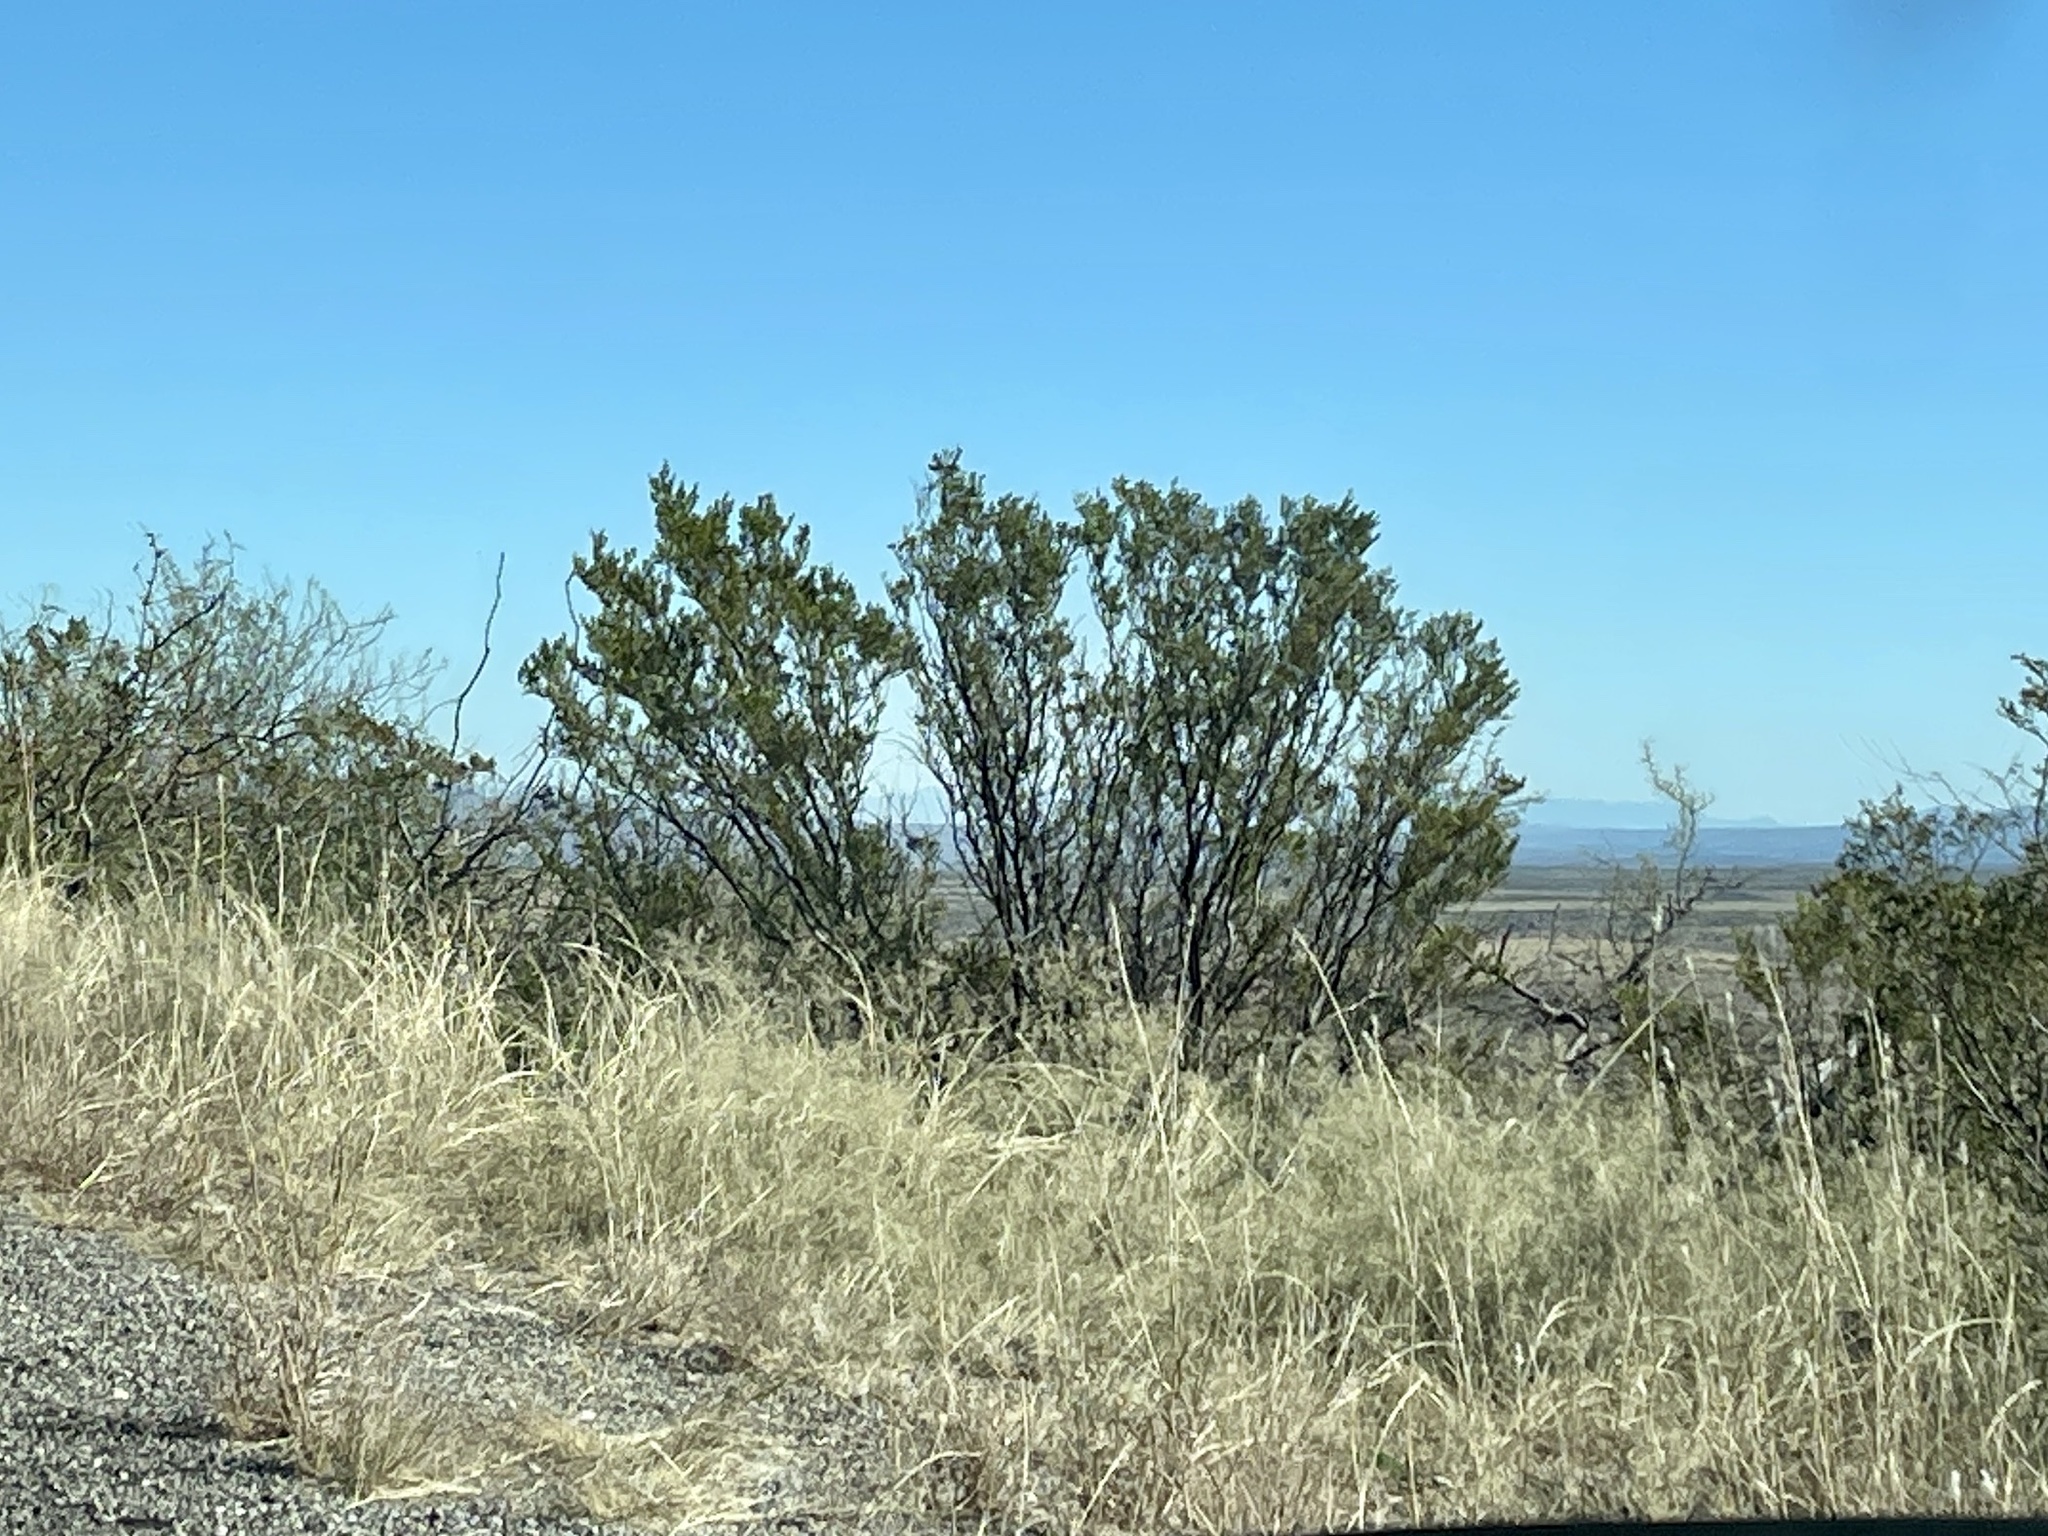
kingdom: Plantae
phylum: Tracheophyta
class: Magnoliopsida
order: Zygophyllales
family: Zygophyllaceae
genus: Larrea
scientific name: Larrea tridentata
